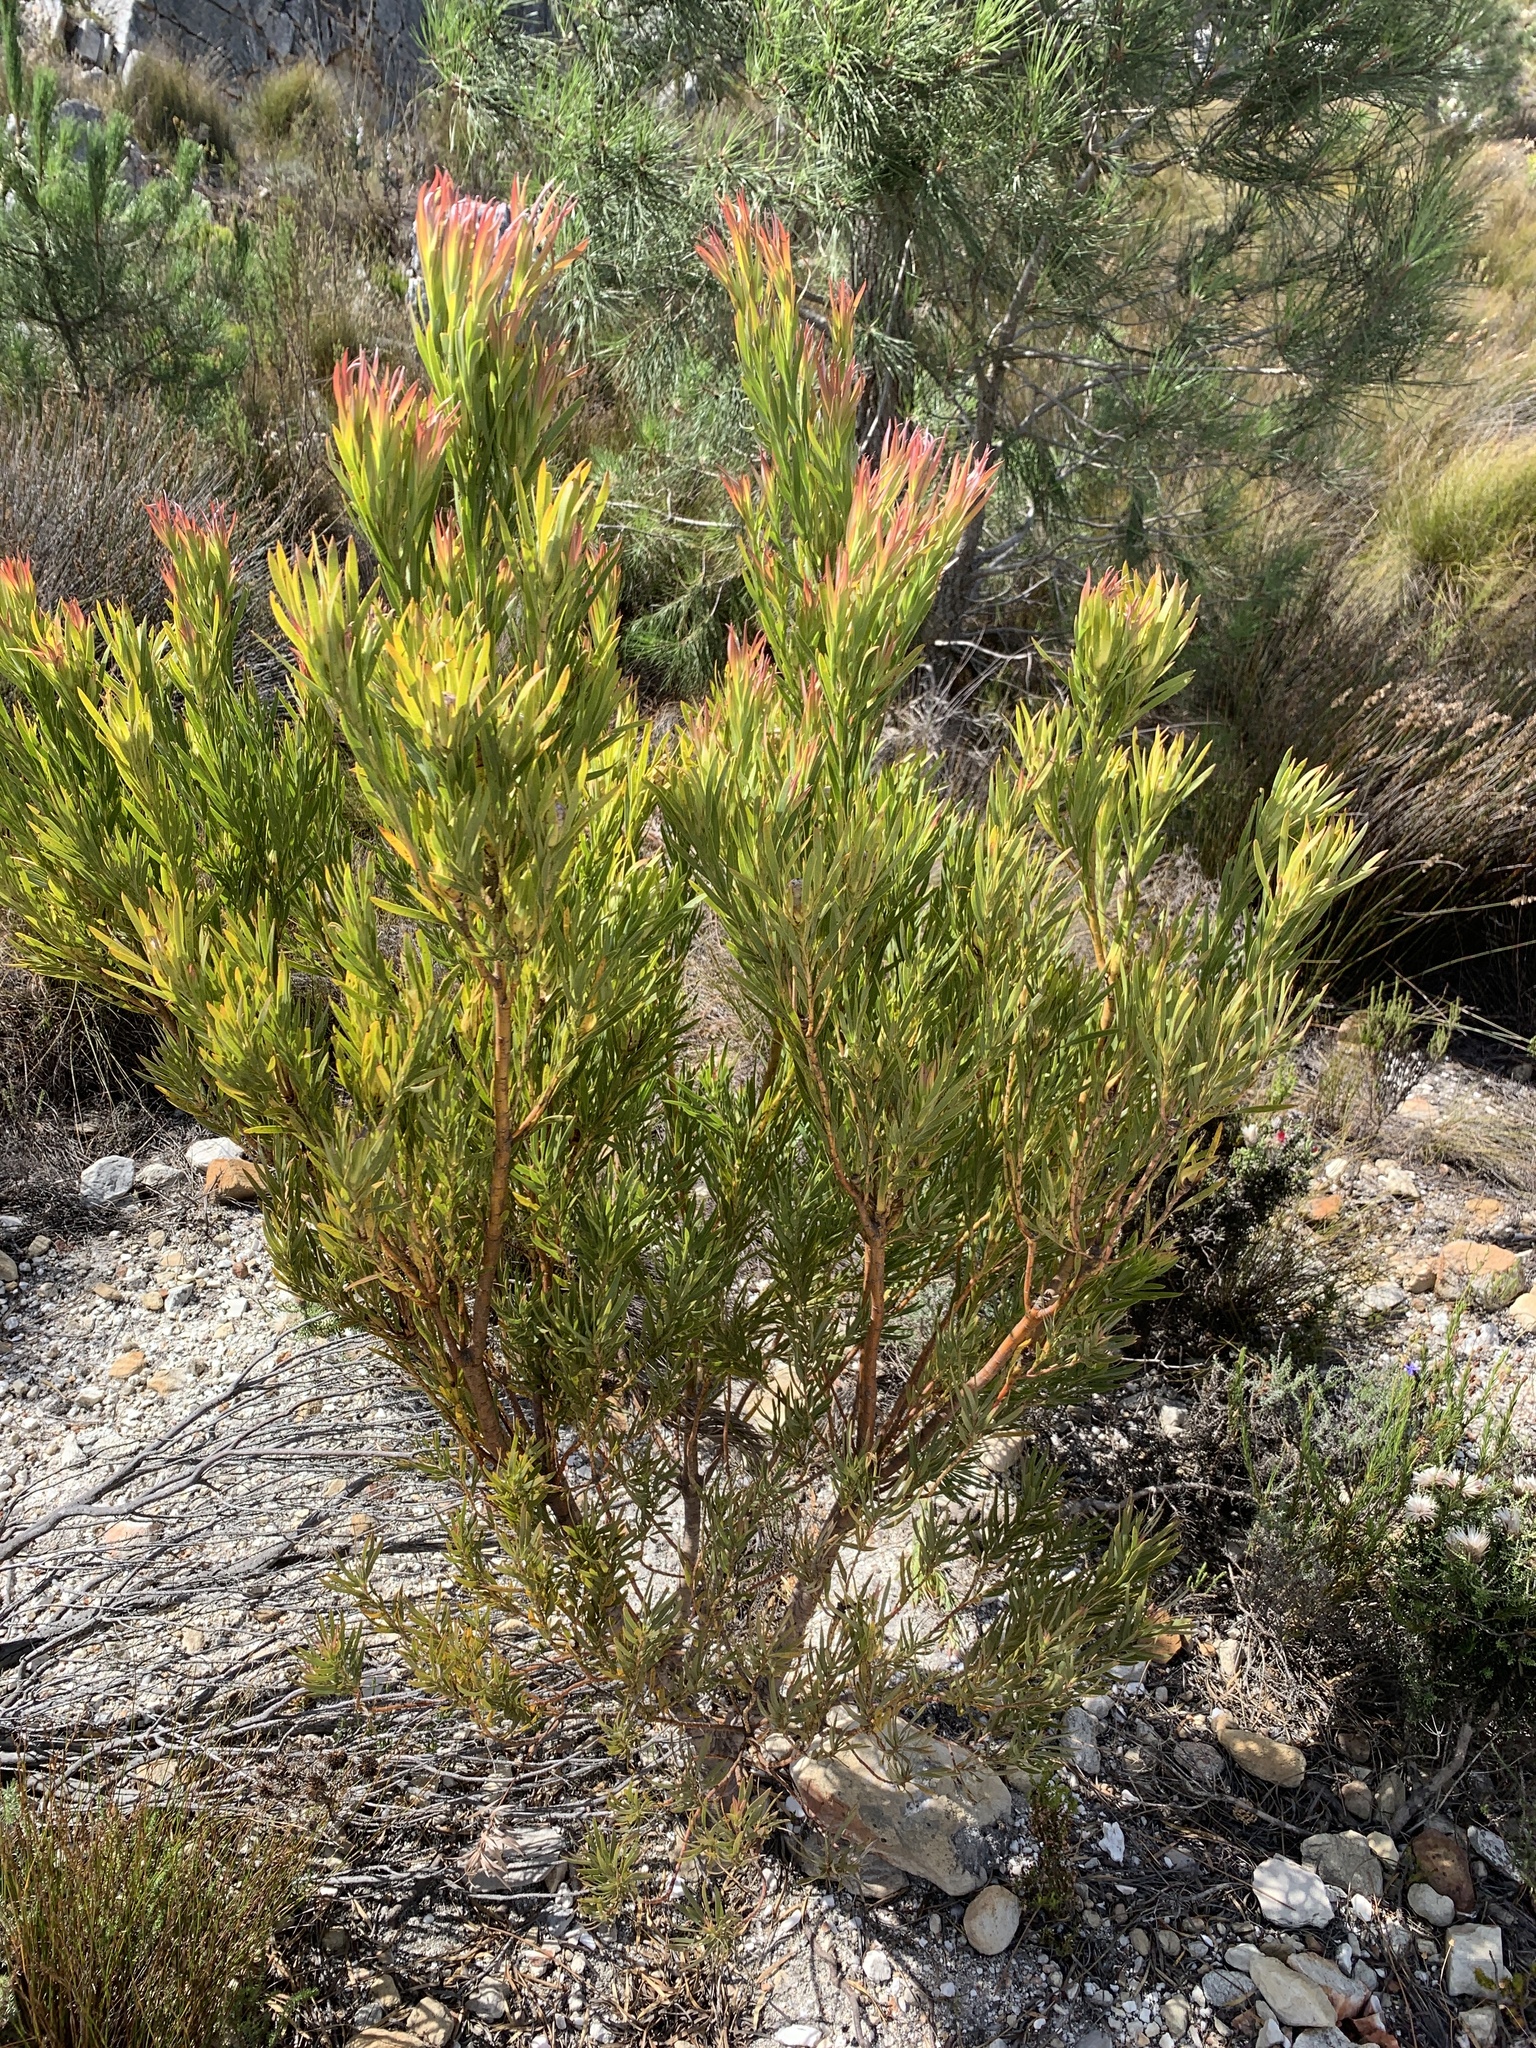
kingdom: Plantae
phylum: Tracheophyta
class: Magnoliopsida
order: Proteales
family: Proteaceae
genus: Leucadendron
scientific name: Leucadendron xanthoconus
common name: Sickle-leaf conebush
